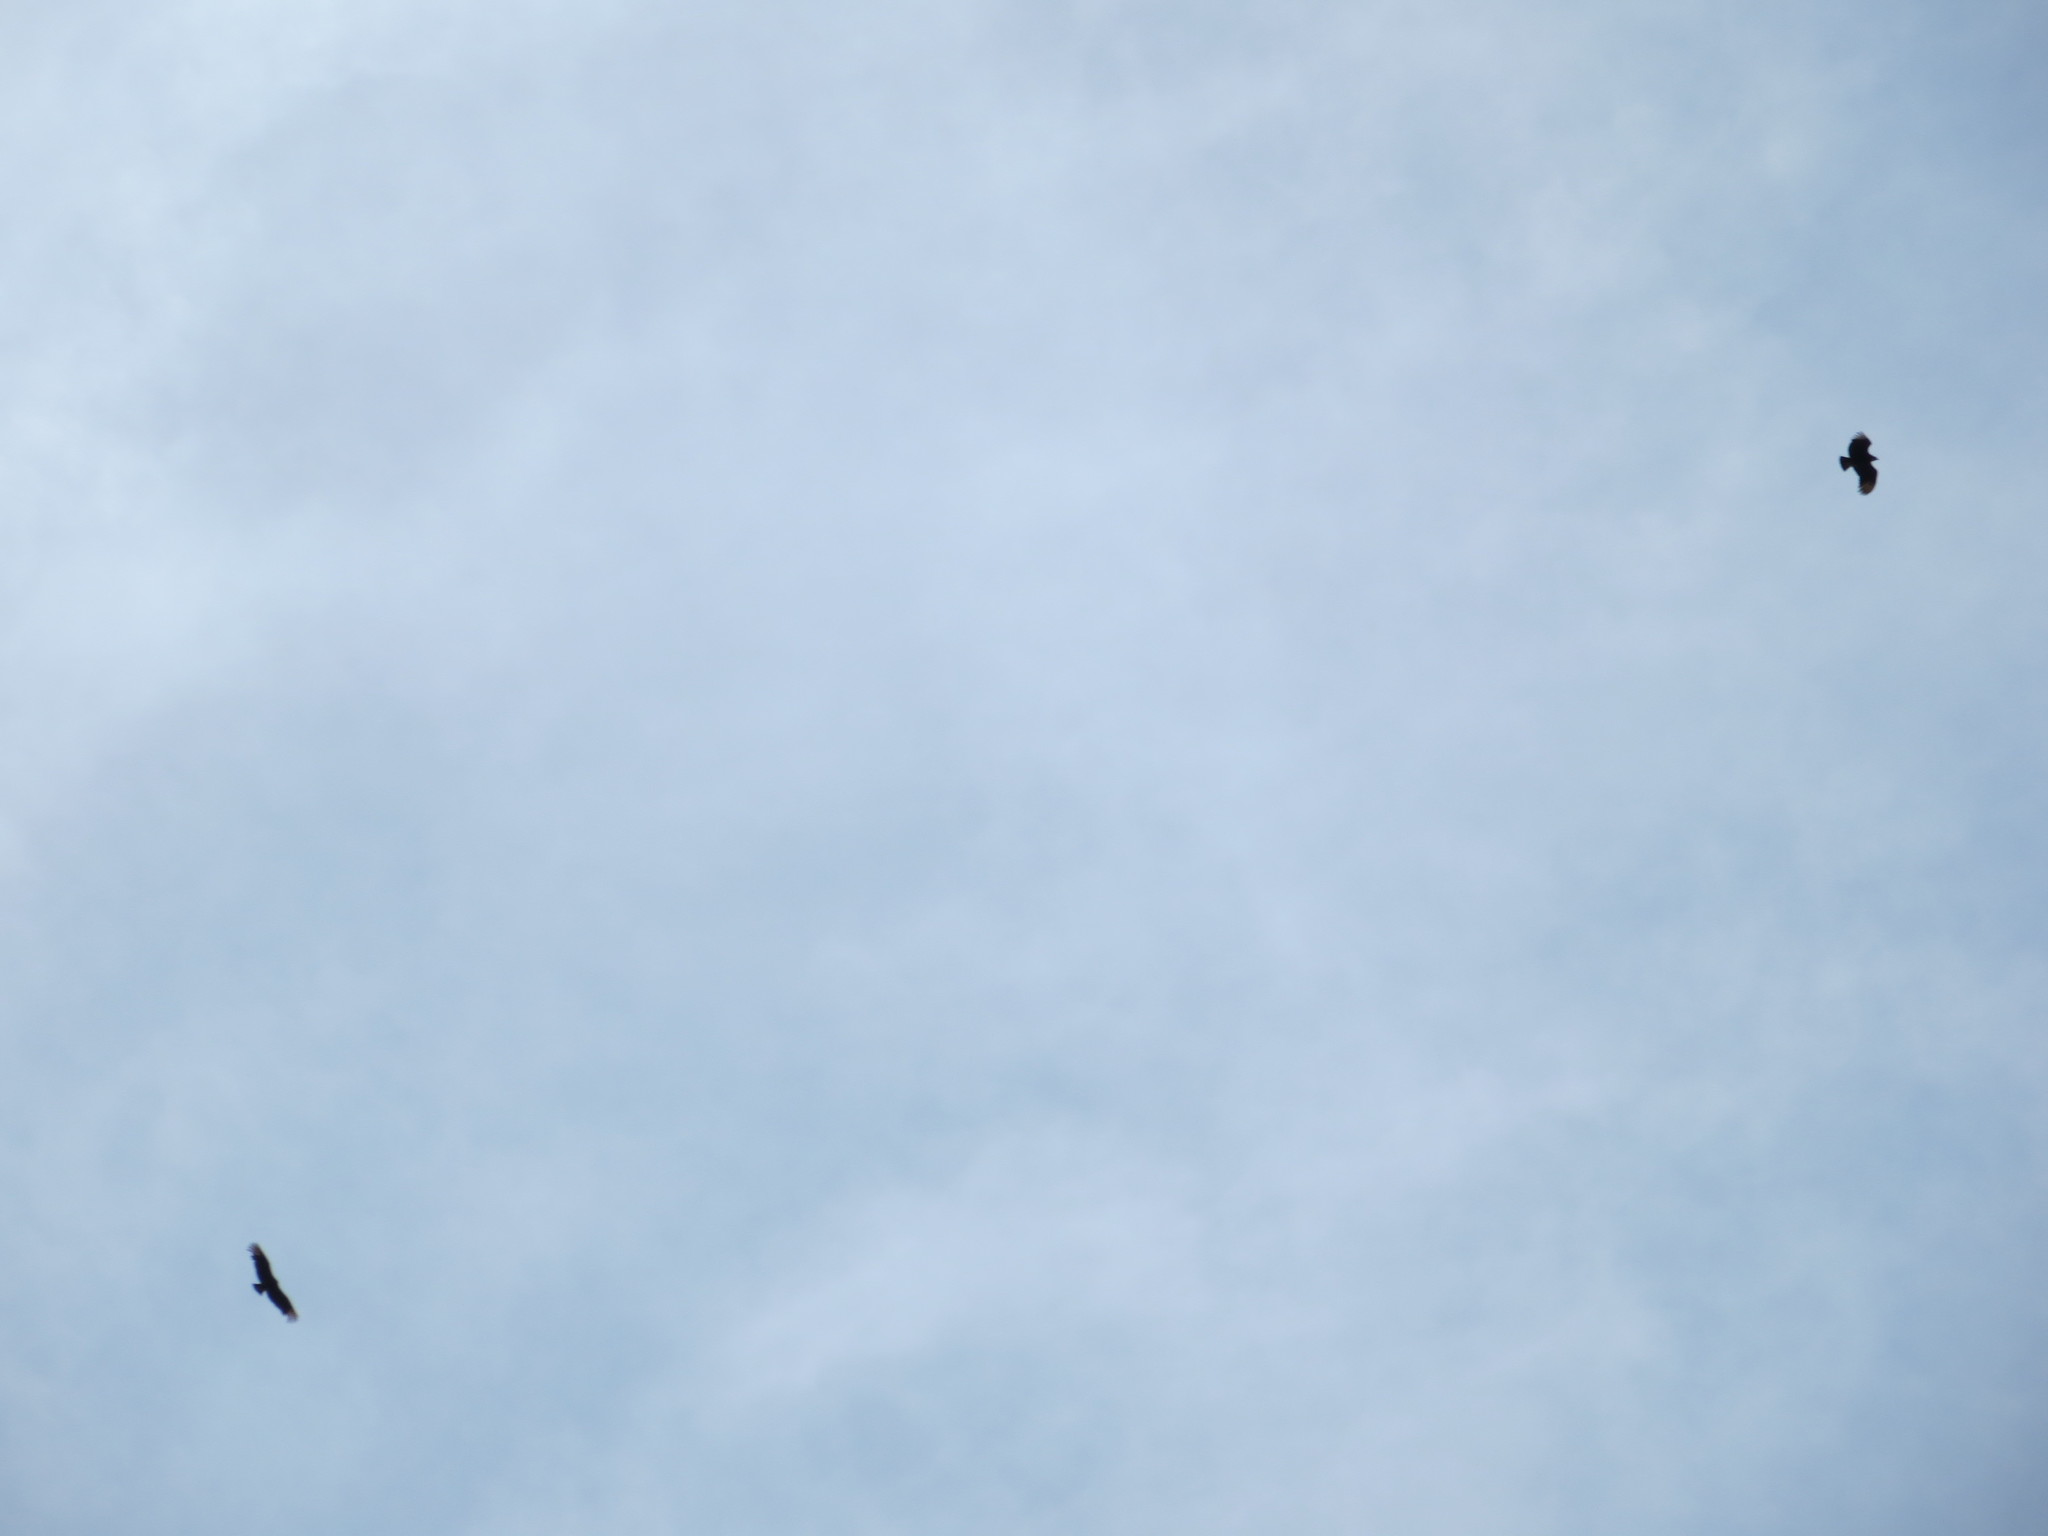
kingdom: Animalia
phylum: Chordata
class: Aves
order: Accipitriformes
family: Cathartidae
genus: Coragyps
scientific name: Coragyps atratus
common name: Black vulture
